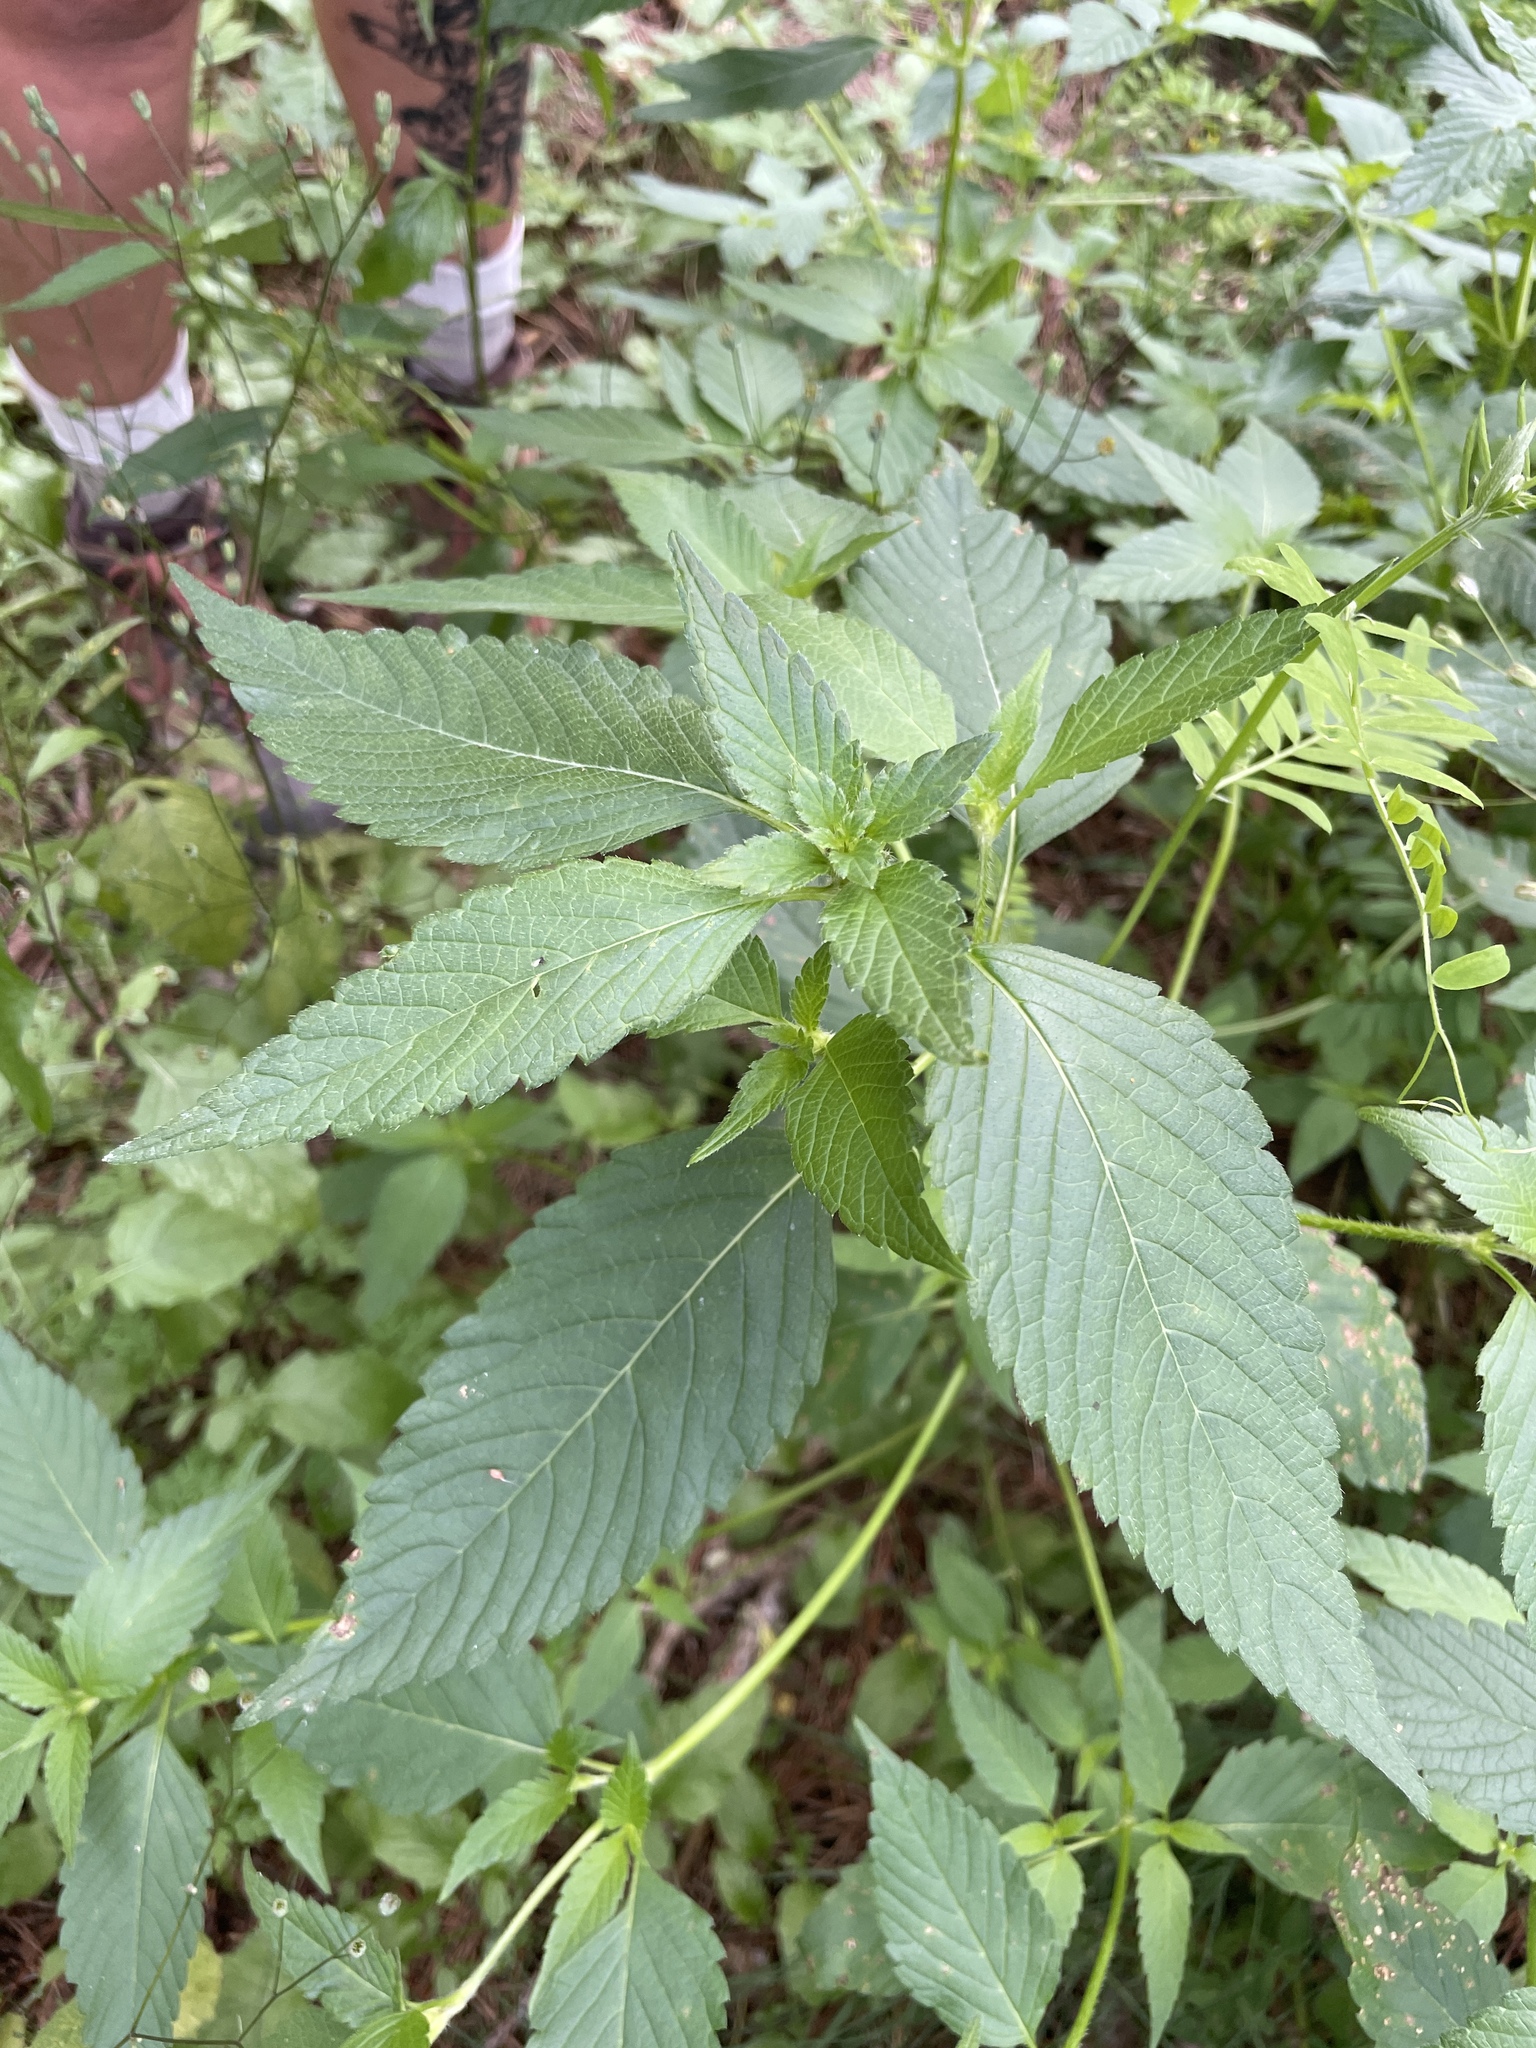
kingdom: Plantae
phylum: Tracheophyta
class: Magnoliopsida
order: Lamiales
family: Lamiaceae
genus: Galeopsis
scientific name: Galeopsis tetrahit
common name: Common hemp-nettle
